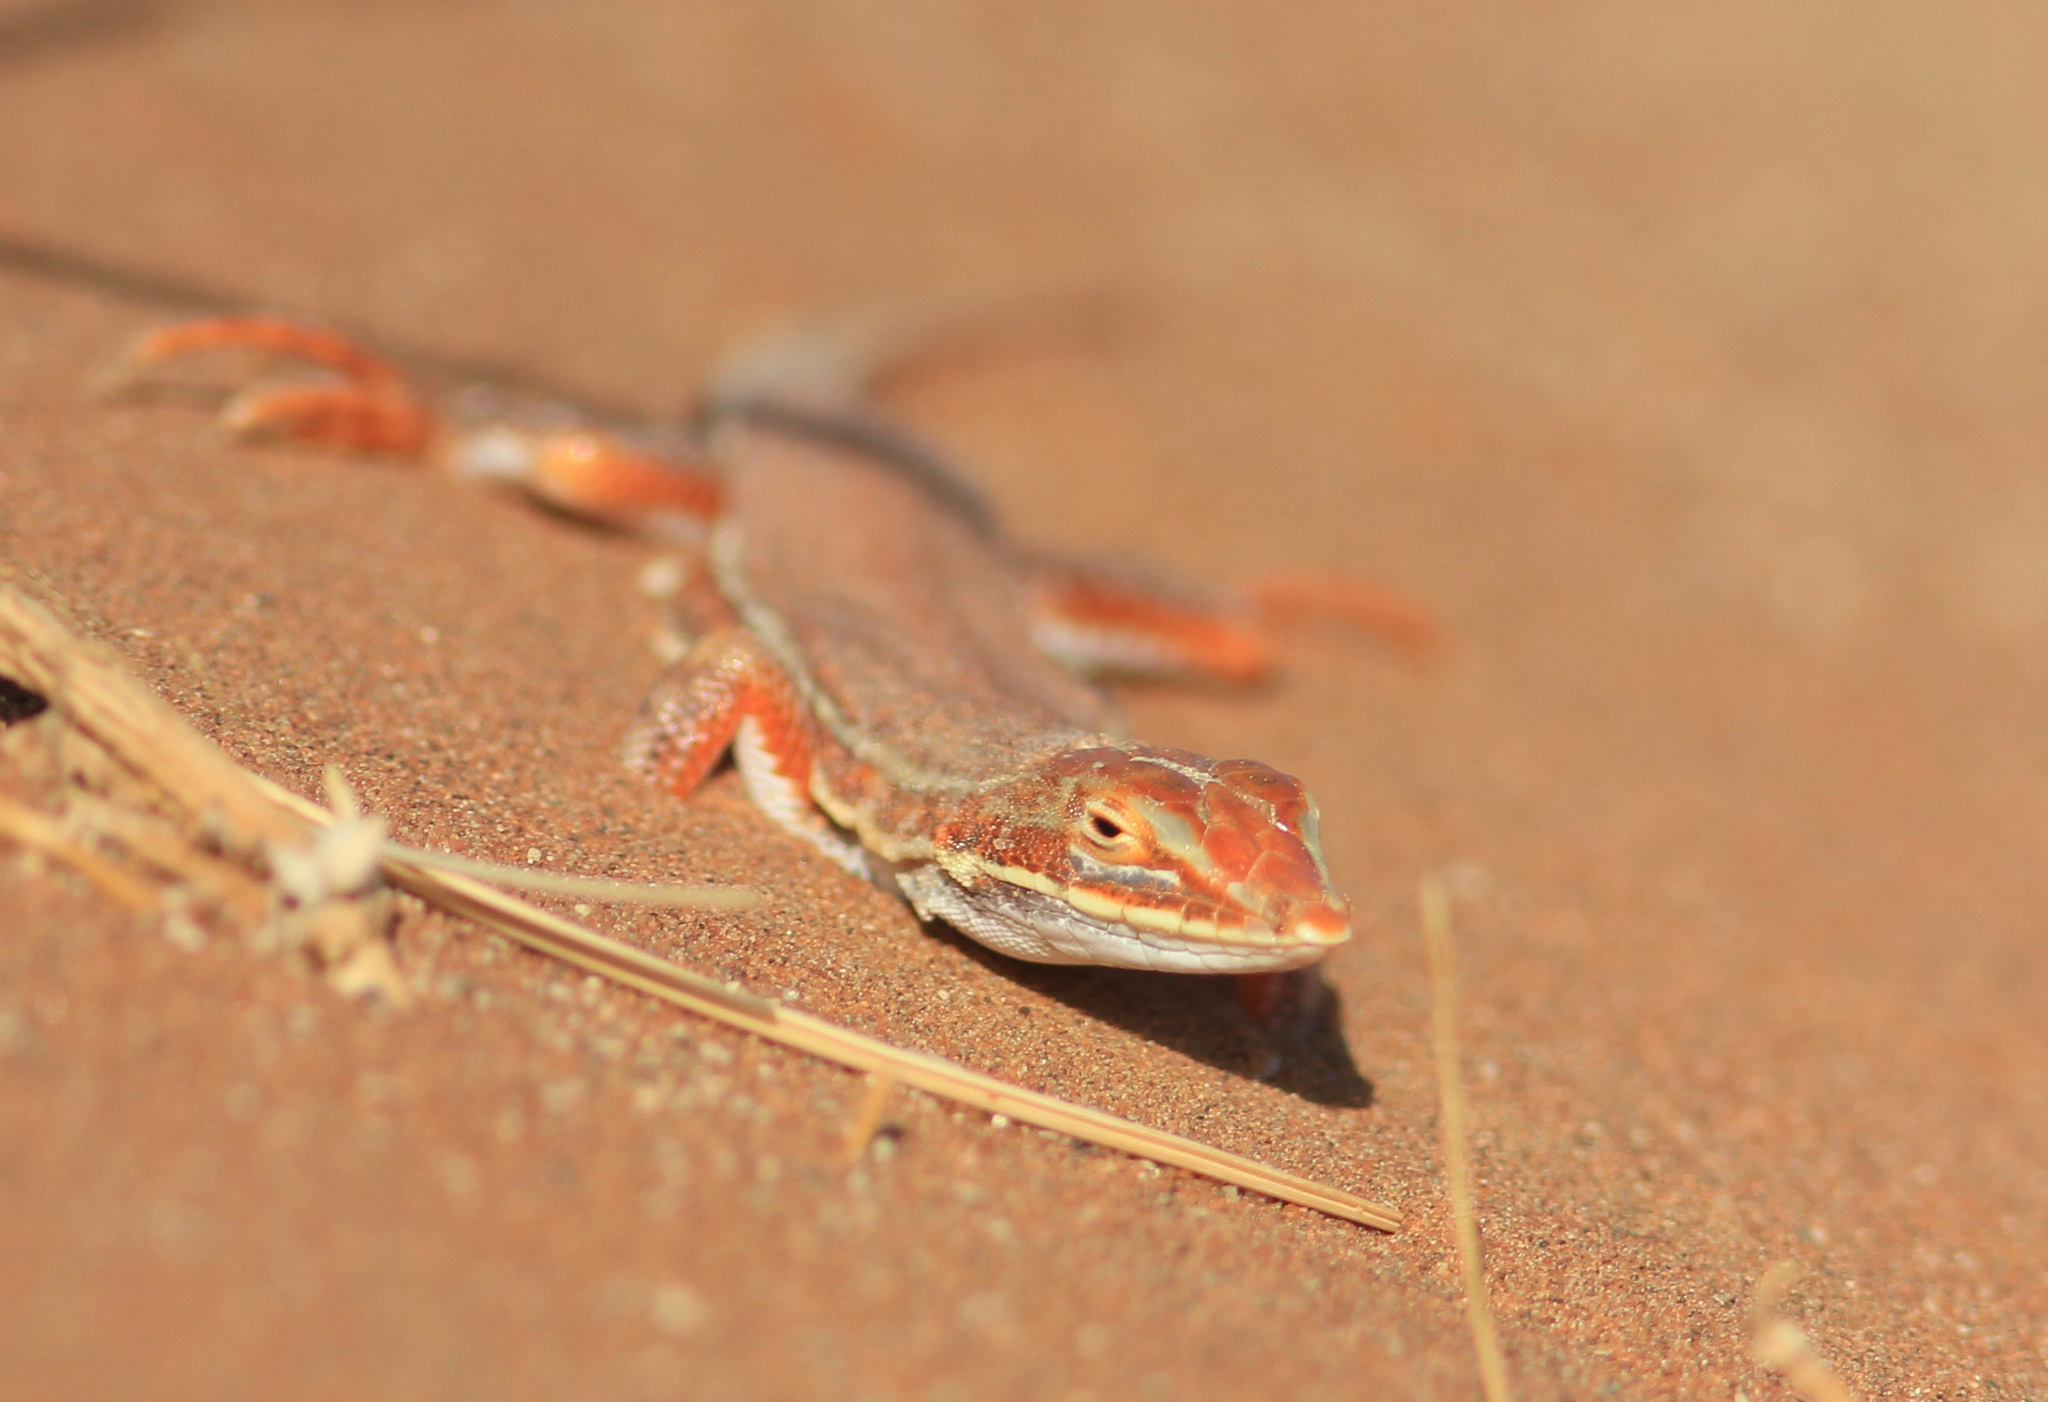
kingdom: Animalia
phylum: Chordata
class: Squamata
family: Lacertidae
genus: Meroles
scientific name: Meroles cuneirostris
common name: Wedge-snouted desert lizard
